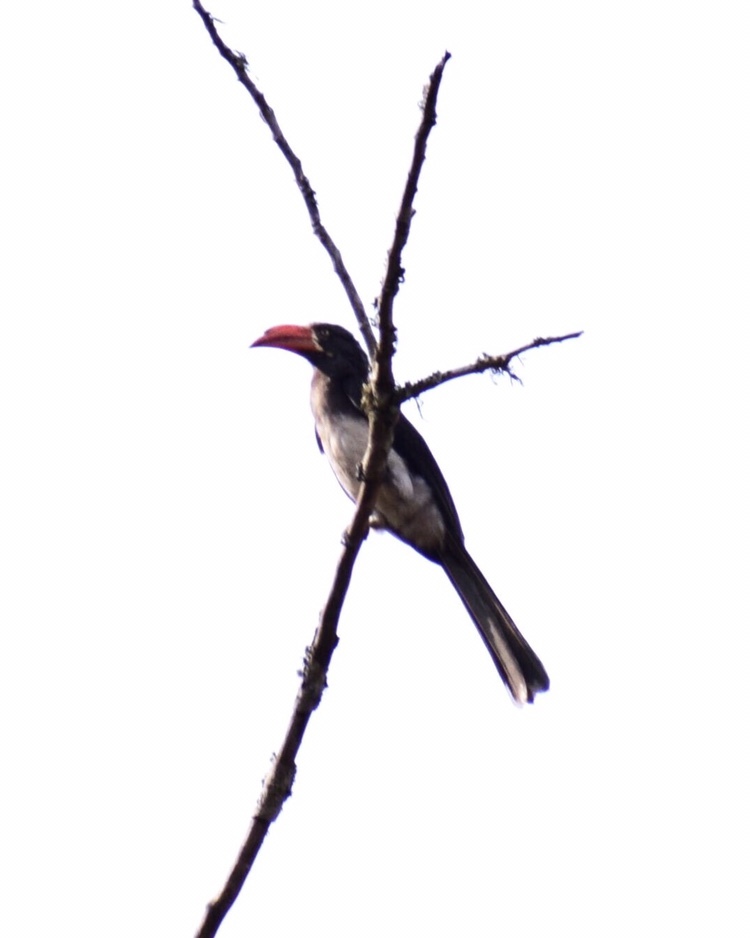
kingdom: Animalia
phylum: Chordata
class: Aves
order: Bucerotiformes
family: Bucerotidae
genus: Lophoceros
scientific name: Lophoceros alboterminatus
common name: Crowned hornbill
